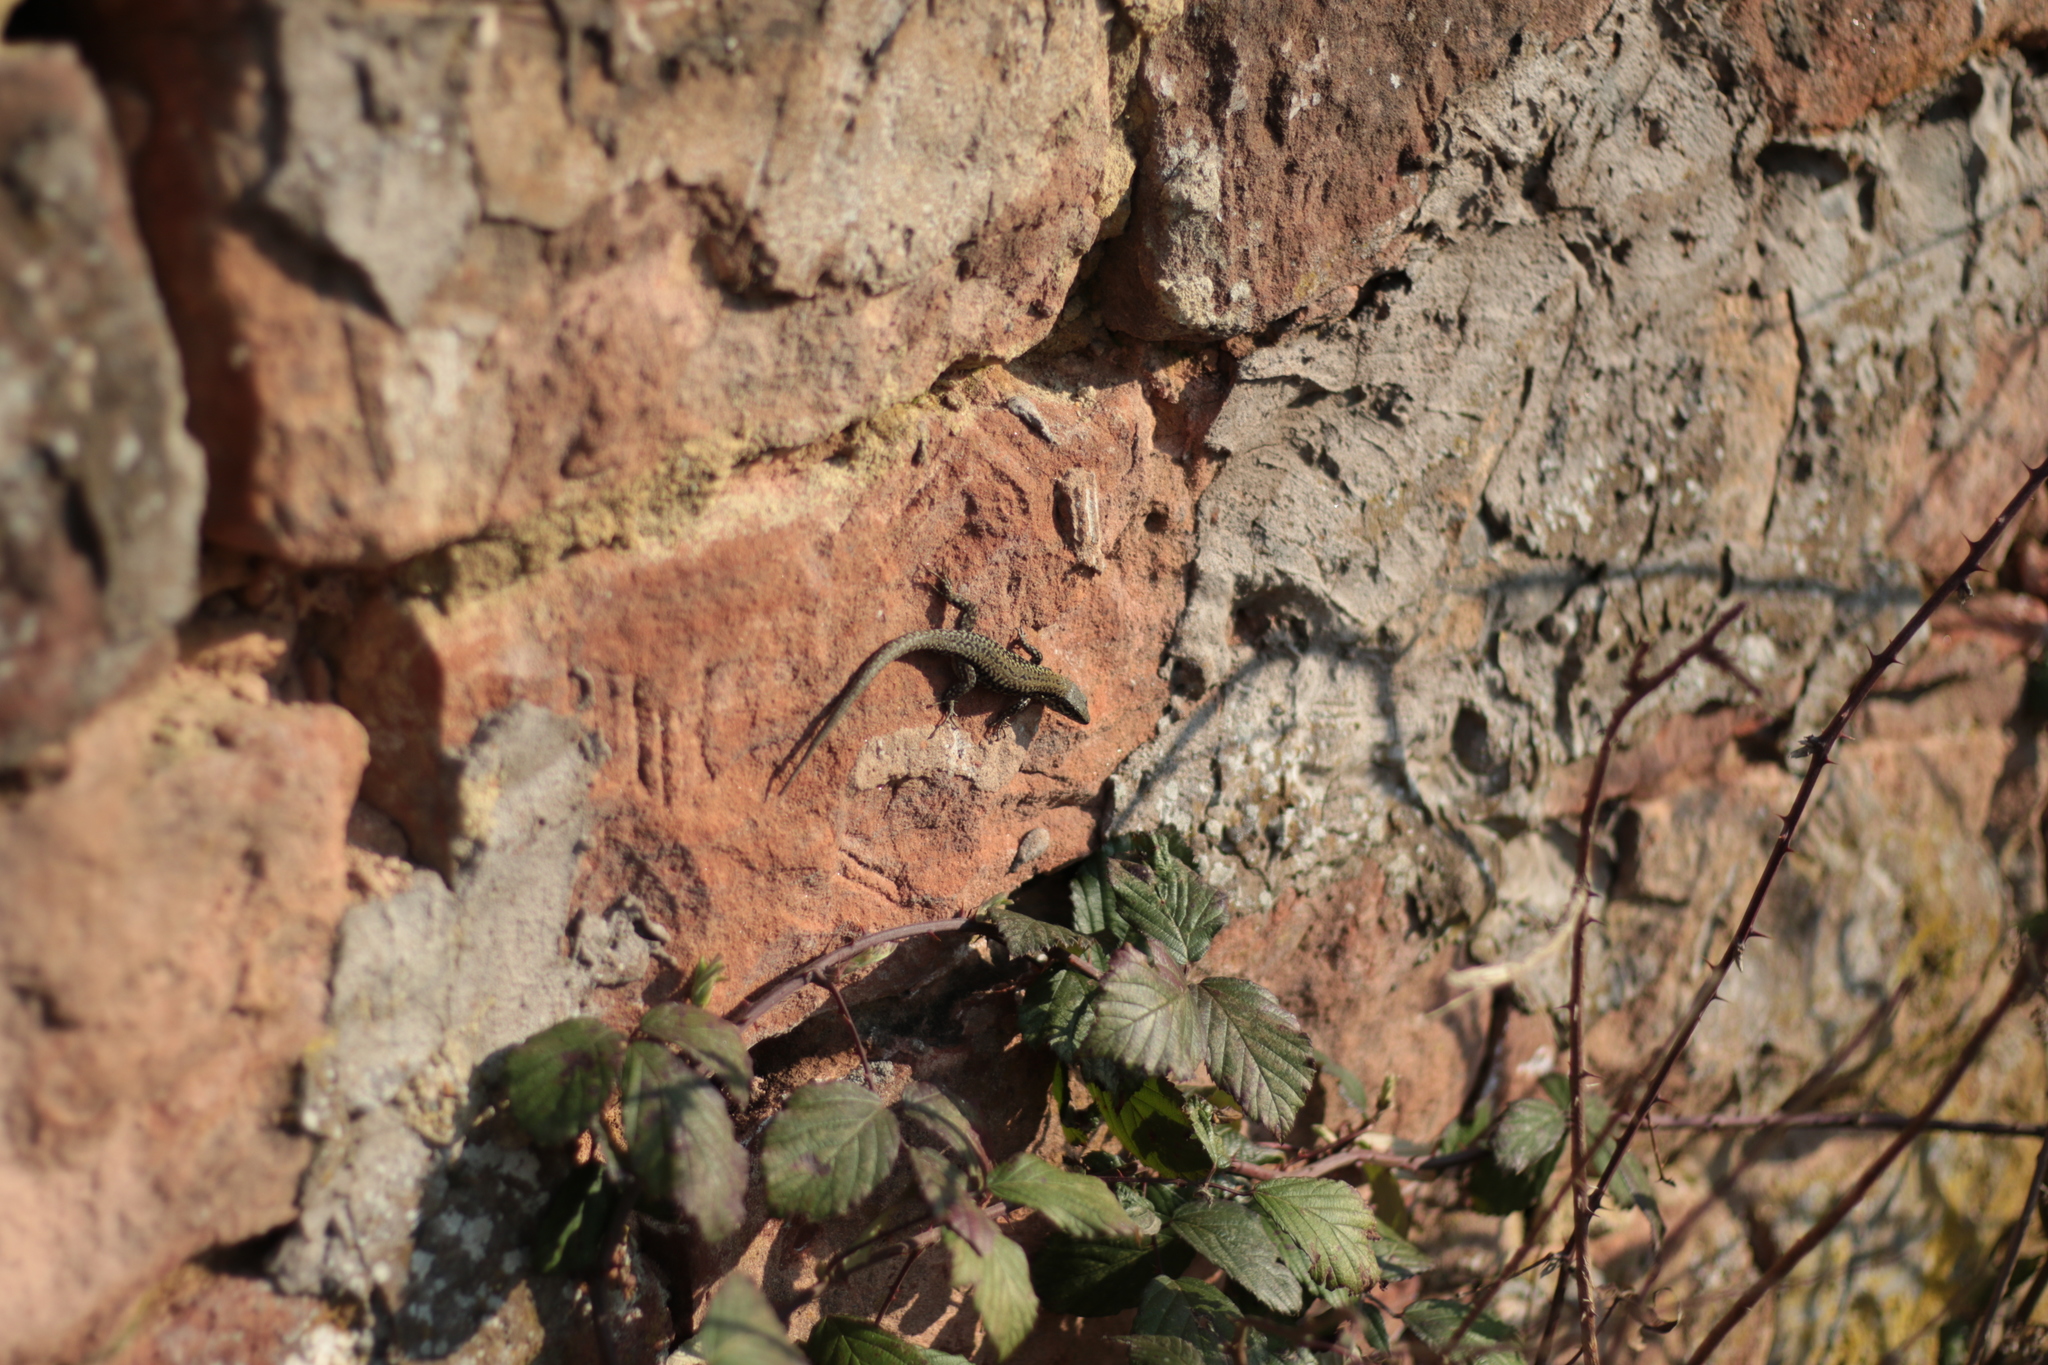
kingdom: Animalia
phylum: Chordata
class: Squamata
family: Lacertidae
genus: Podarcis
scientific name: Podarcis muralis
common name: Common wall lizard
